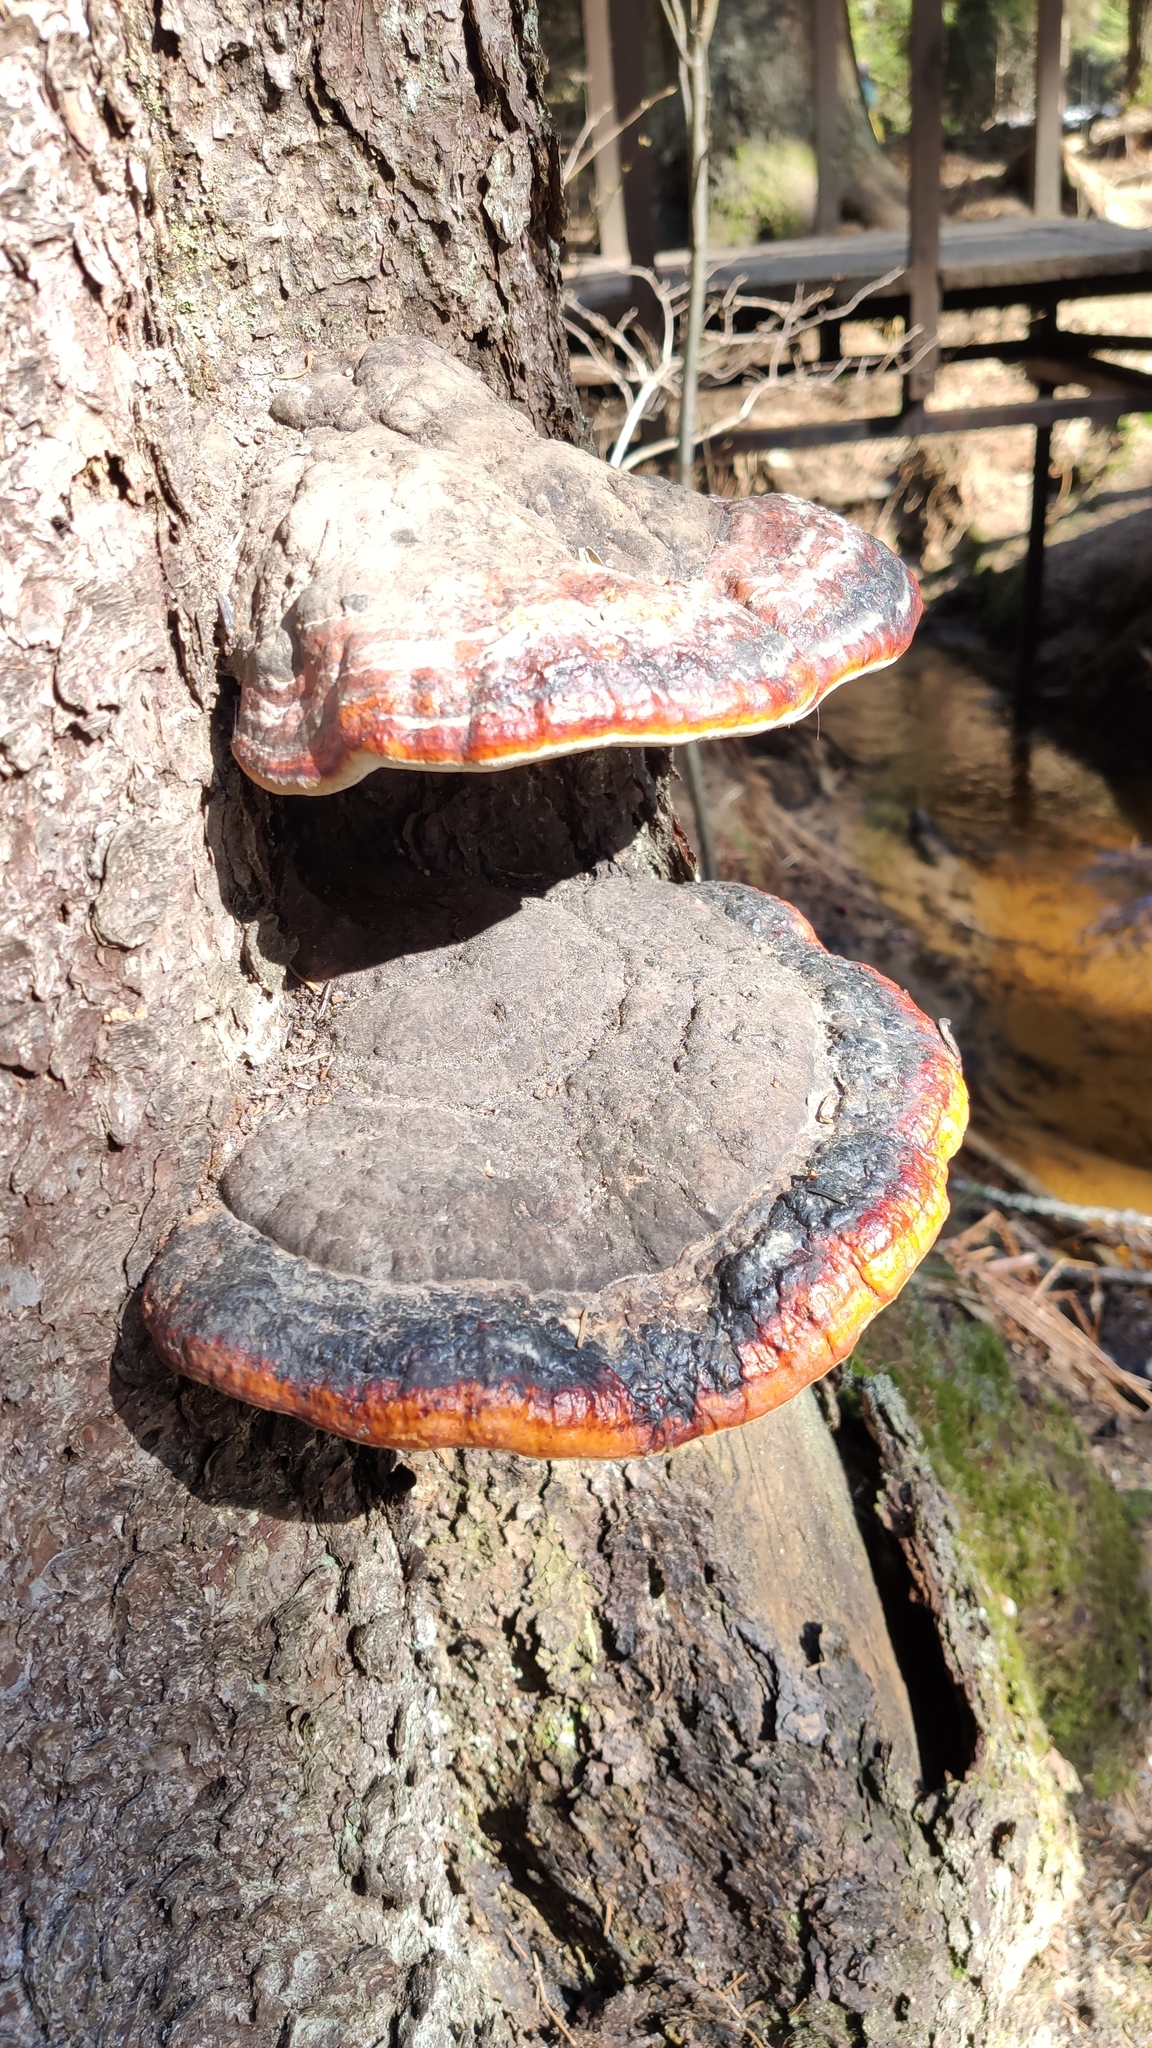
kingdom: Fungi
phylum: Basidiomycota
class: Agaricomycetes
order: Polyporales
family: Fomitopsidaceae
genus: Fomitopsis
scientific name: Fomitopsis pinicola
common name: Red-belted bracket
